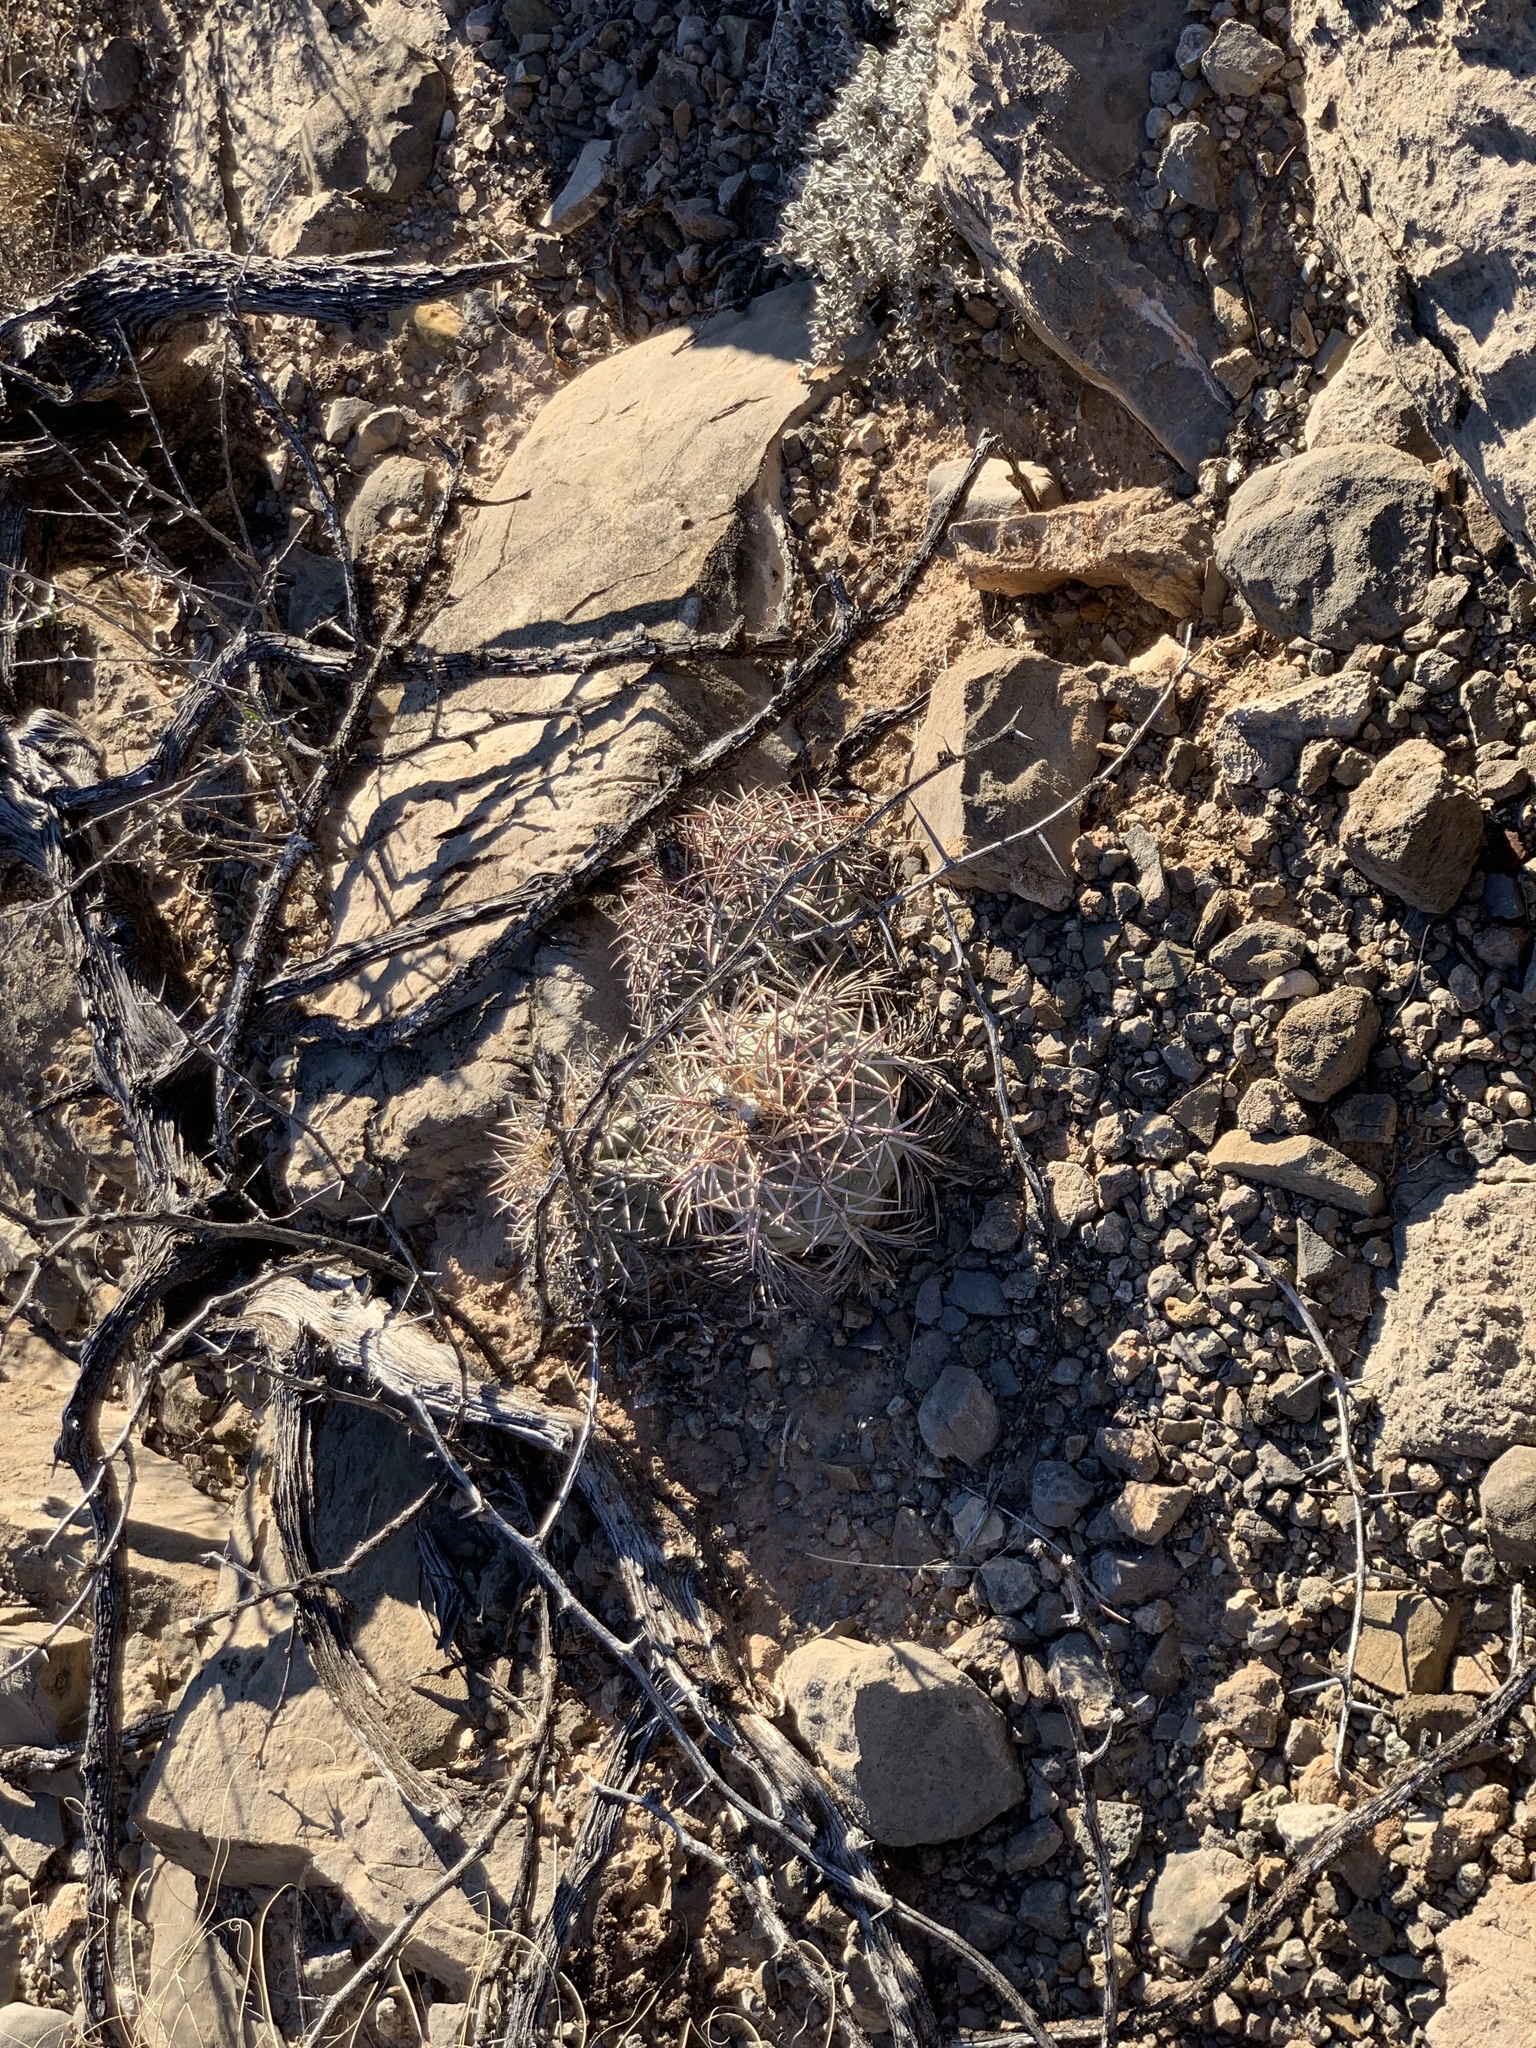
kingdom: Plantae
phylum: Tracheophyta
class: Magnoliopsida
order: Caryophyllales
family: Cactaceae
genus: Echinocactus
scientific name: Echinocactus horizonthalonius
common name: Devilshead
